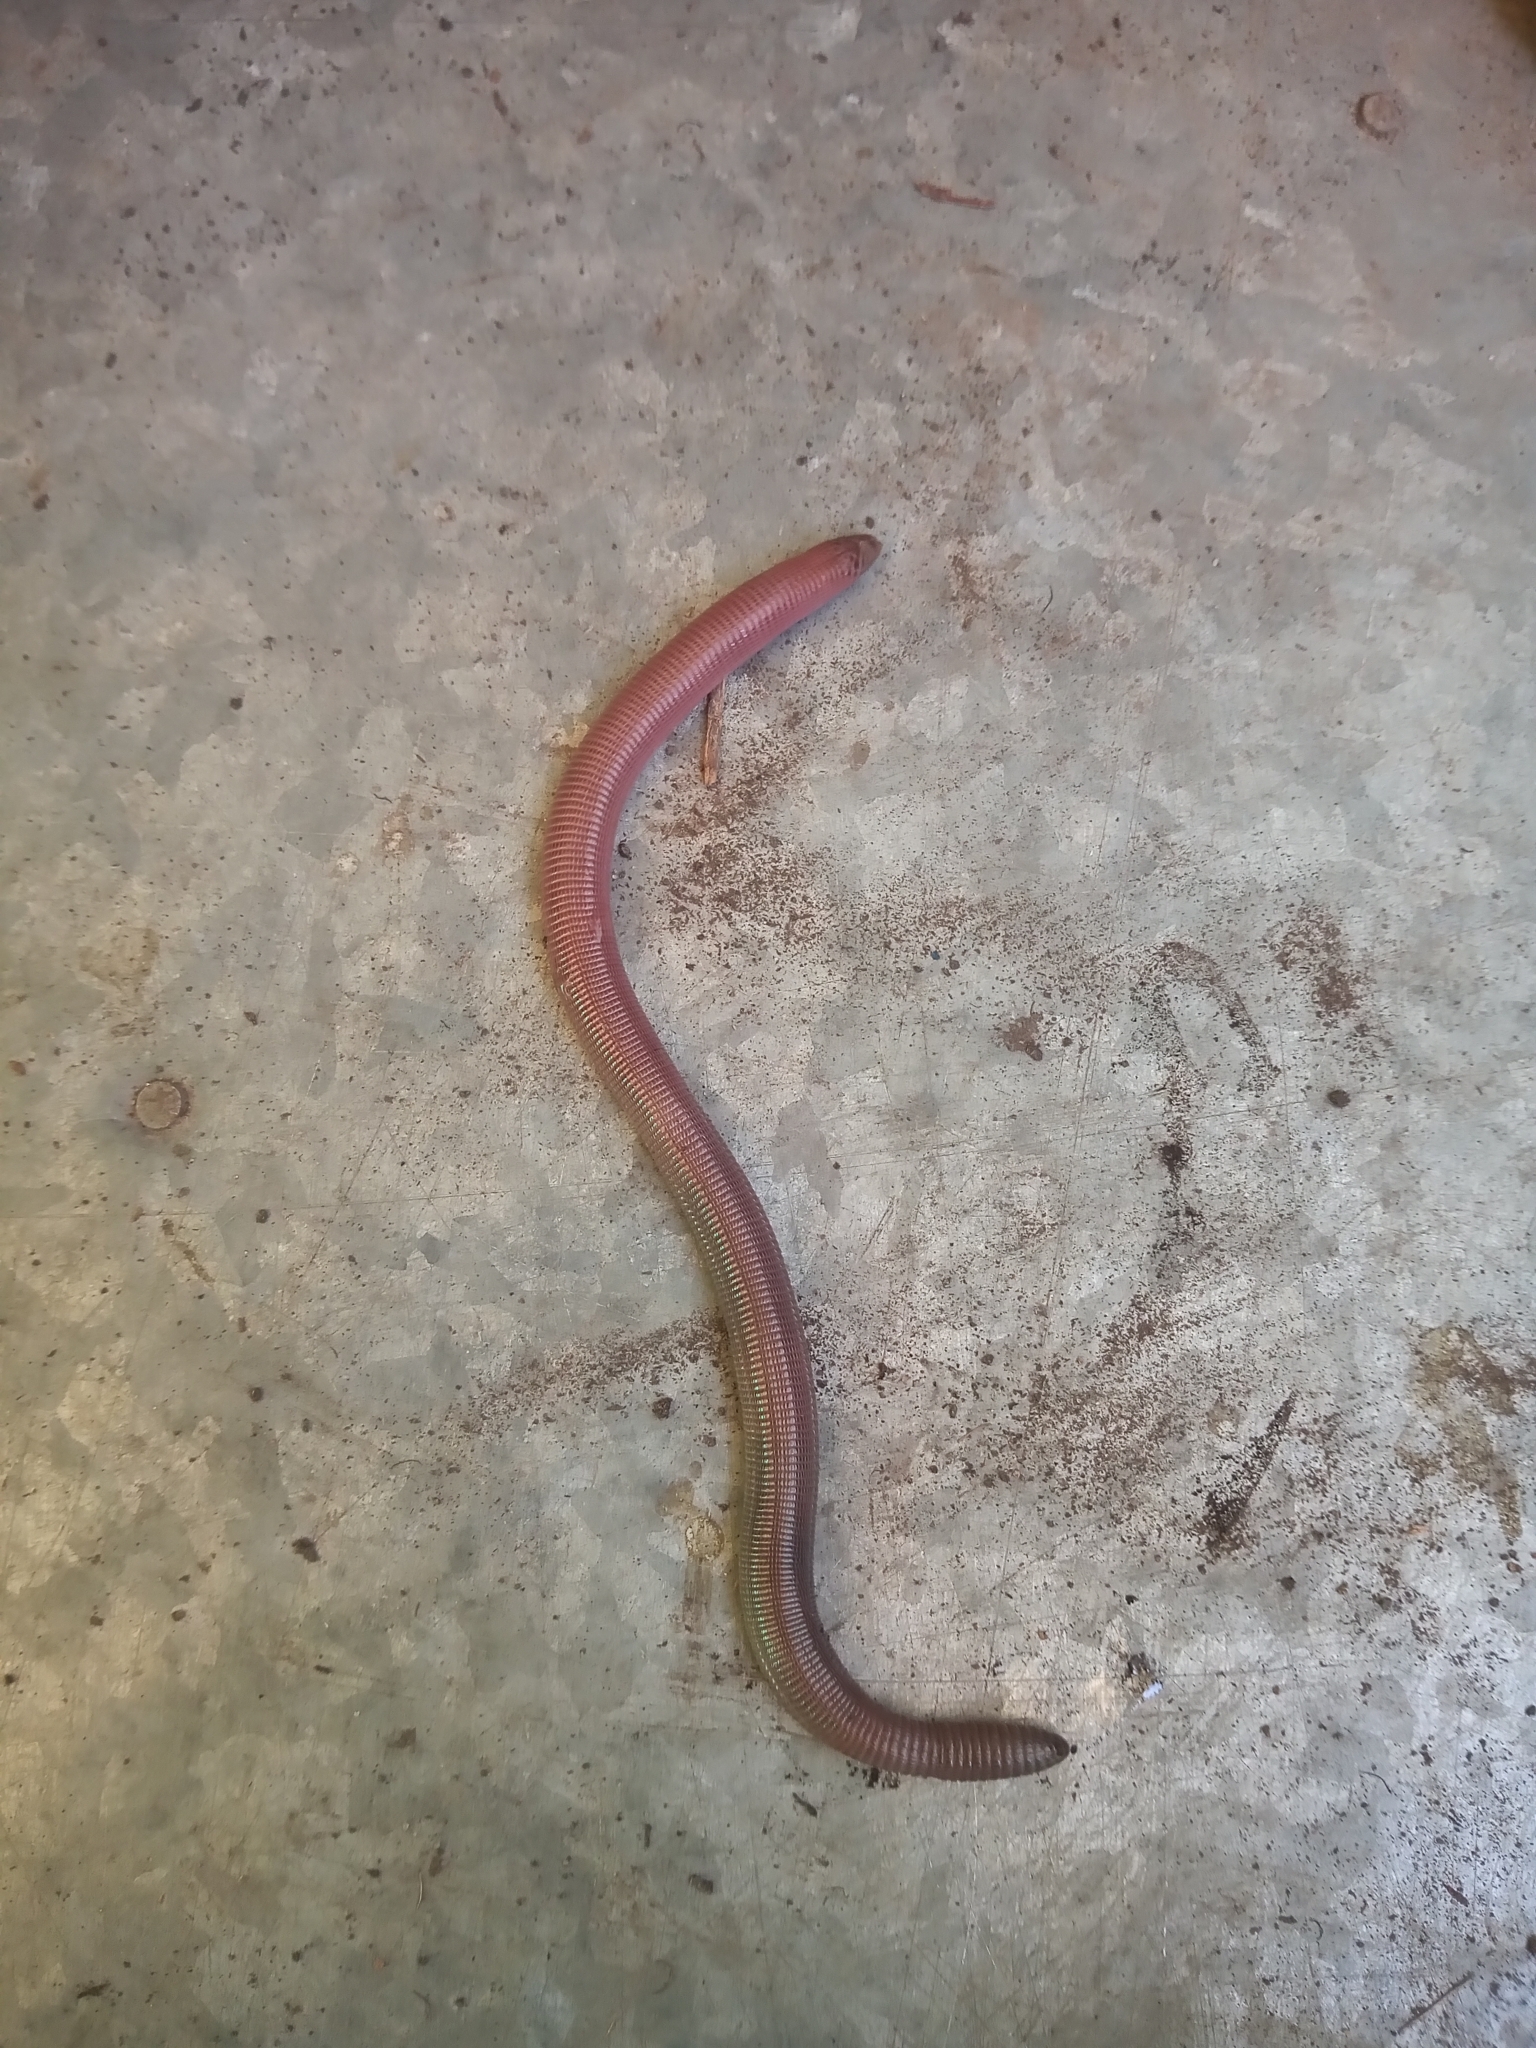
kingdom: Animalia
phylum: Chordata
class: Squamata
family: Amphisbaenidae
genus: Amphisbaena
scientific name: Amphisbaena darwinii
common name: Darwin's ringed worm lizard
